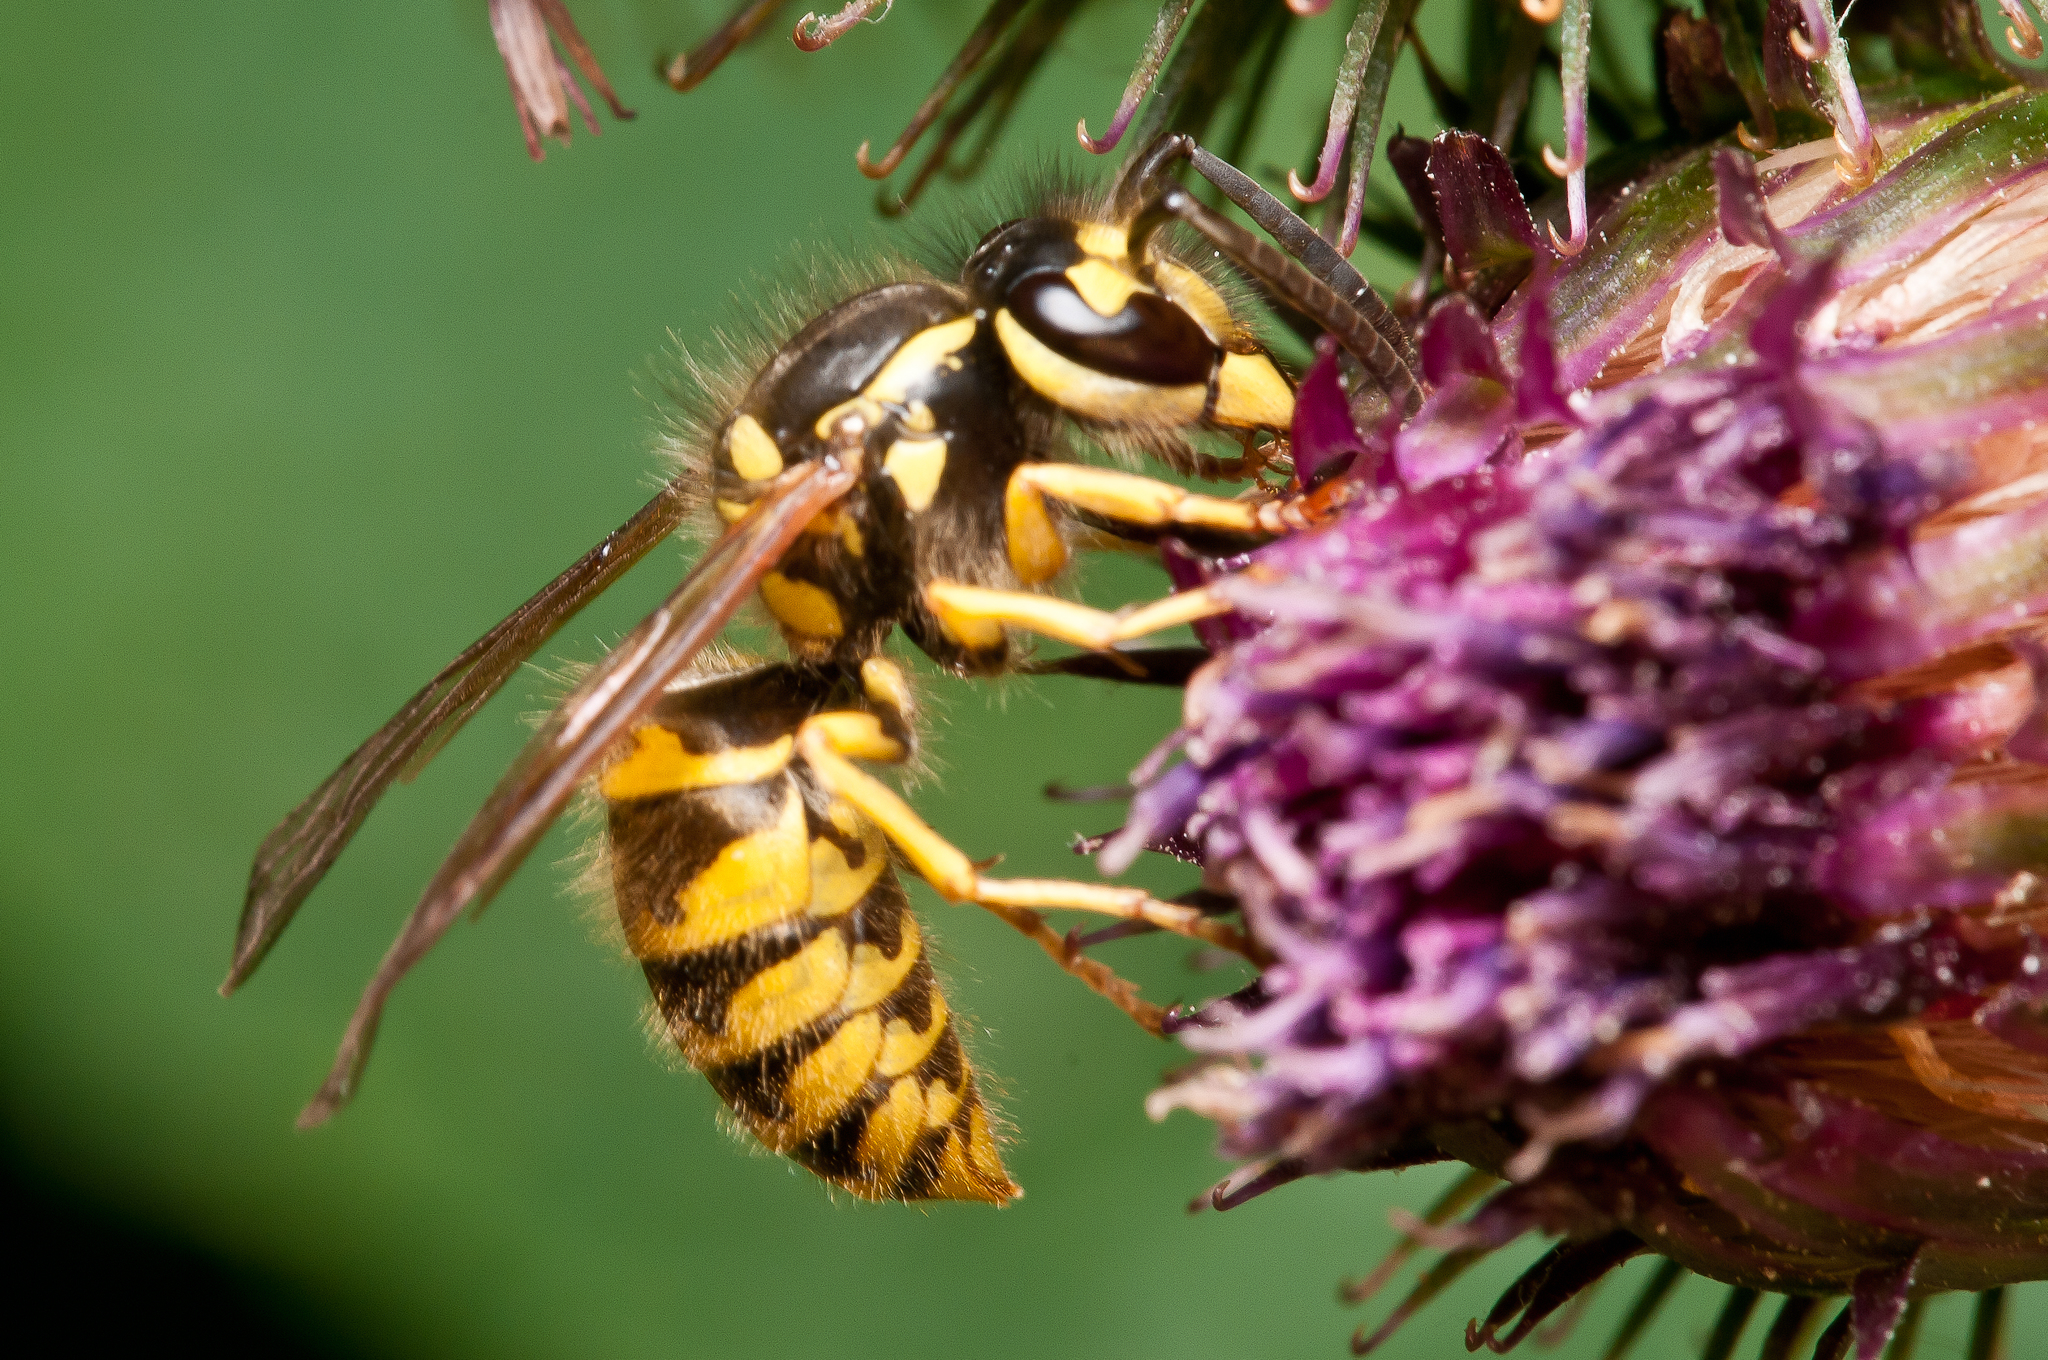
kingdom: Animalia
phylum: Arthropoda
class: Insecta
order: Hymenoptera
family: Vespidae
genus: Vespula
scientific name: Vespula maculifrons
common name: Eastern yellowjacket
